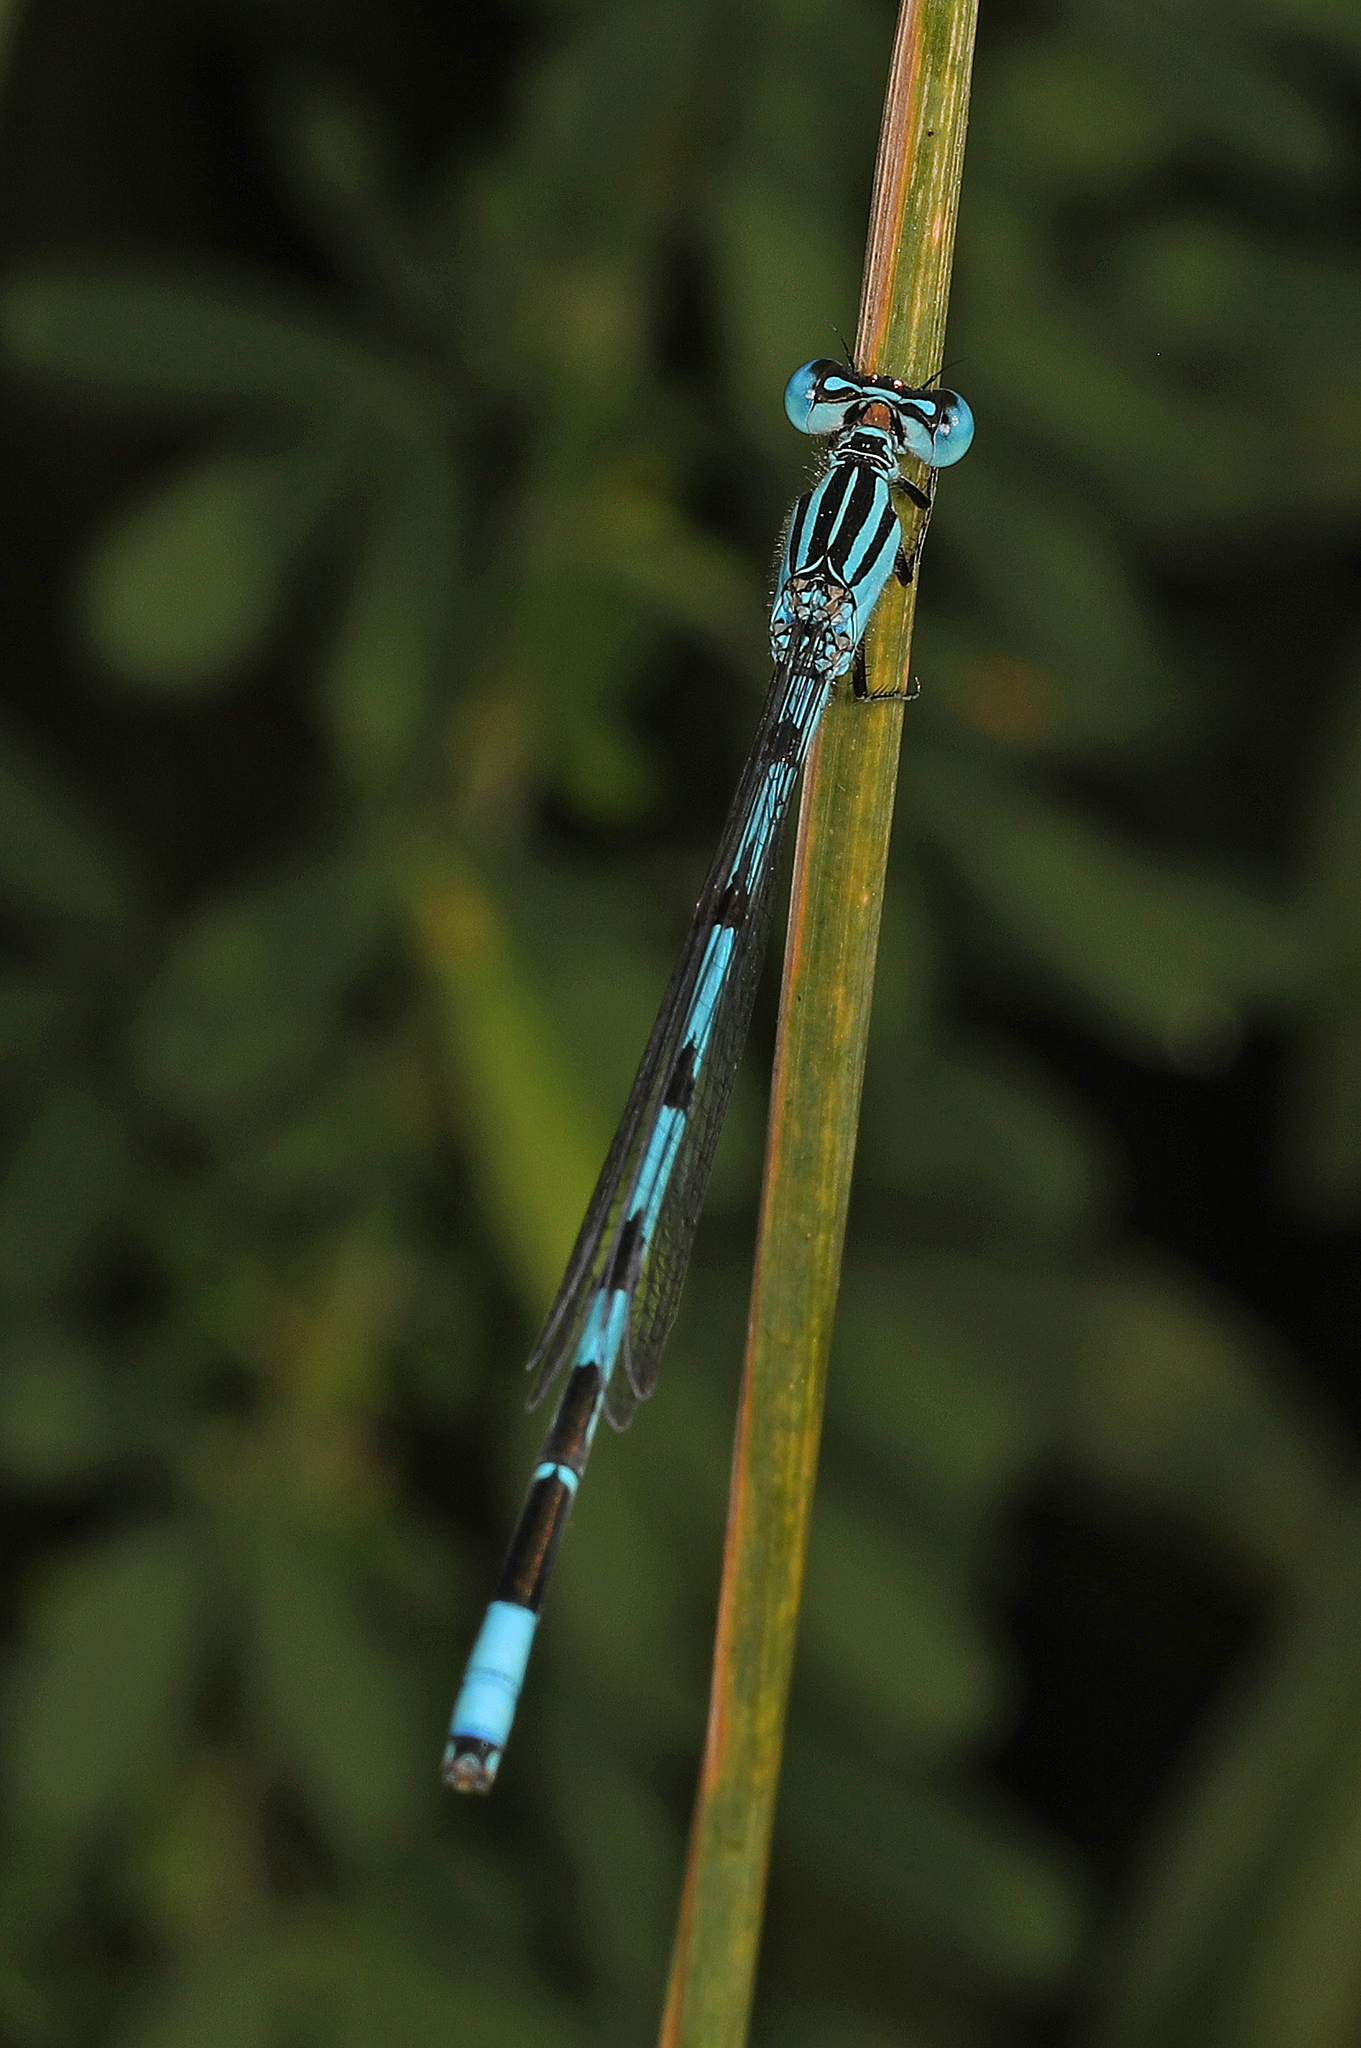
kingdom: Animalia
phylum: Arthropoda
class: Insecta
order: Odonata
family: Coenagrionidae
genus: Enallagma
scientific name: Enallagma durum
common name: Big bluet
